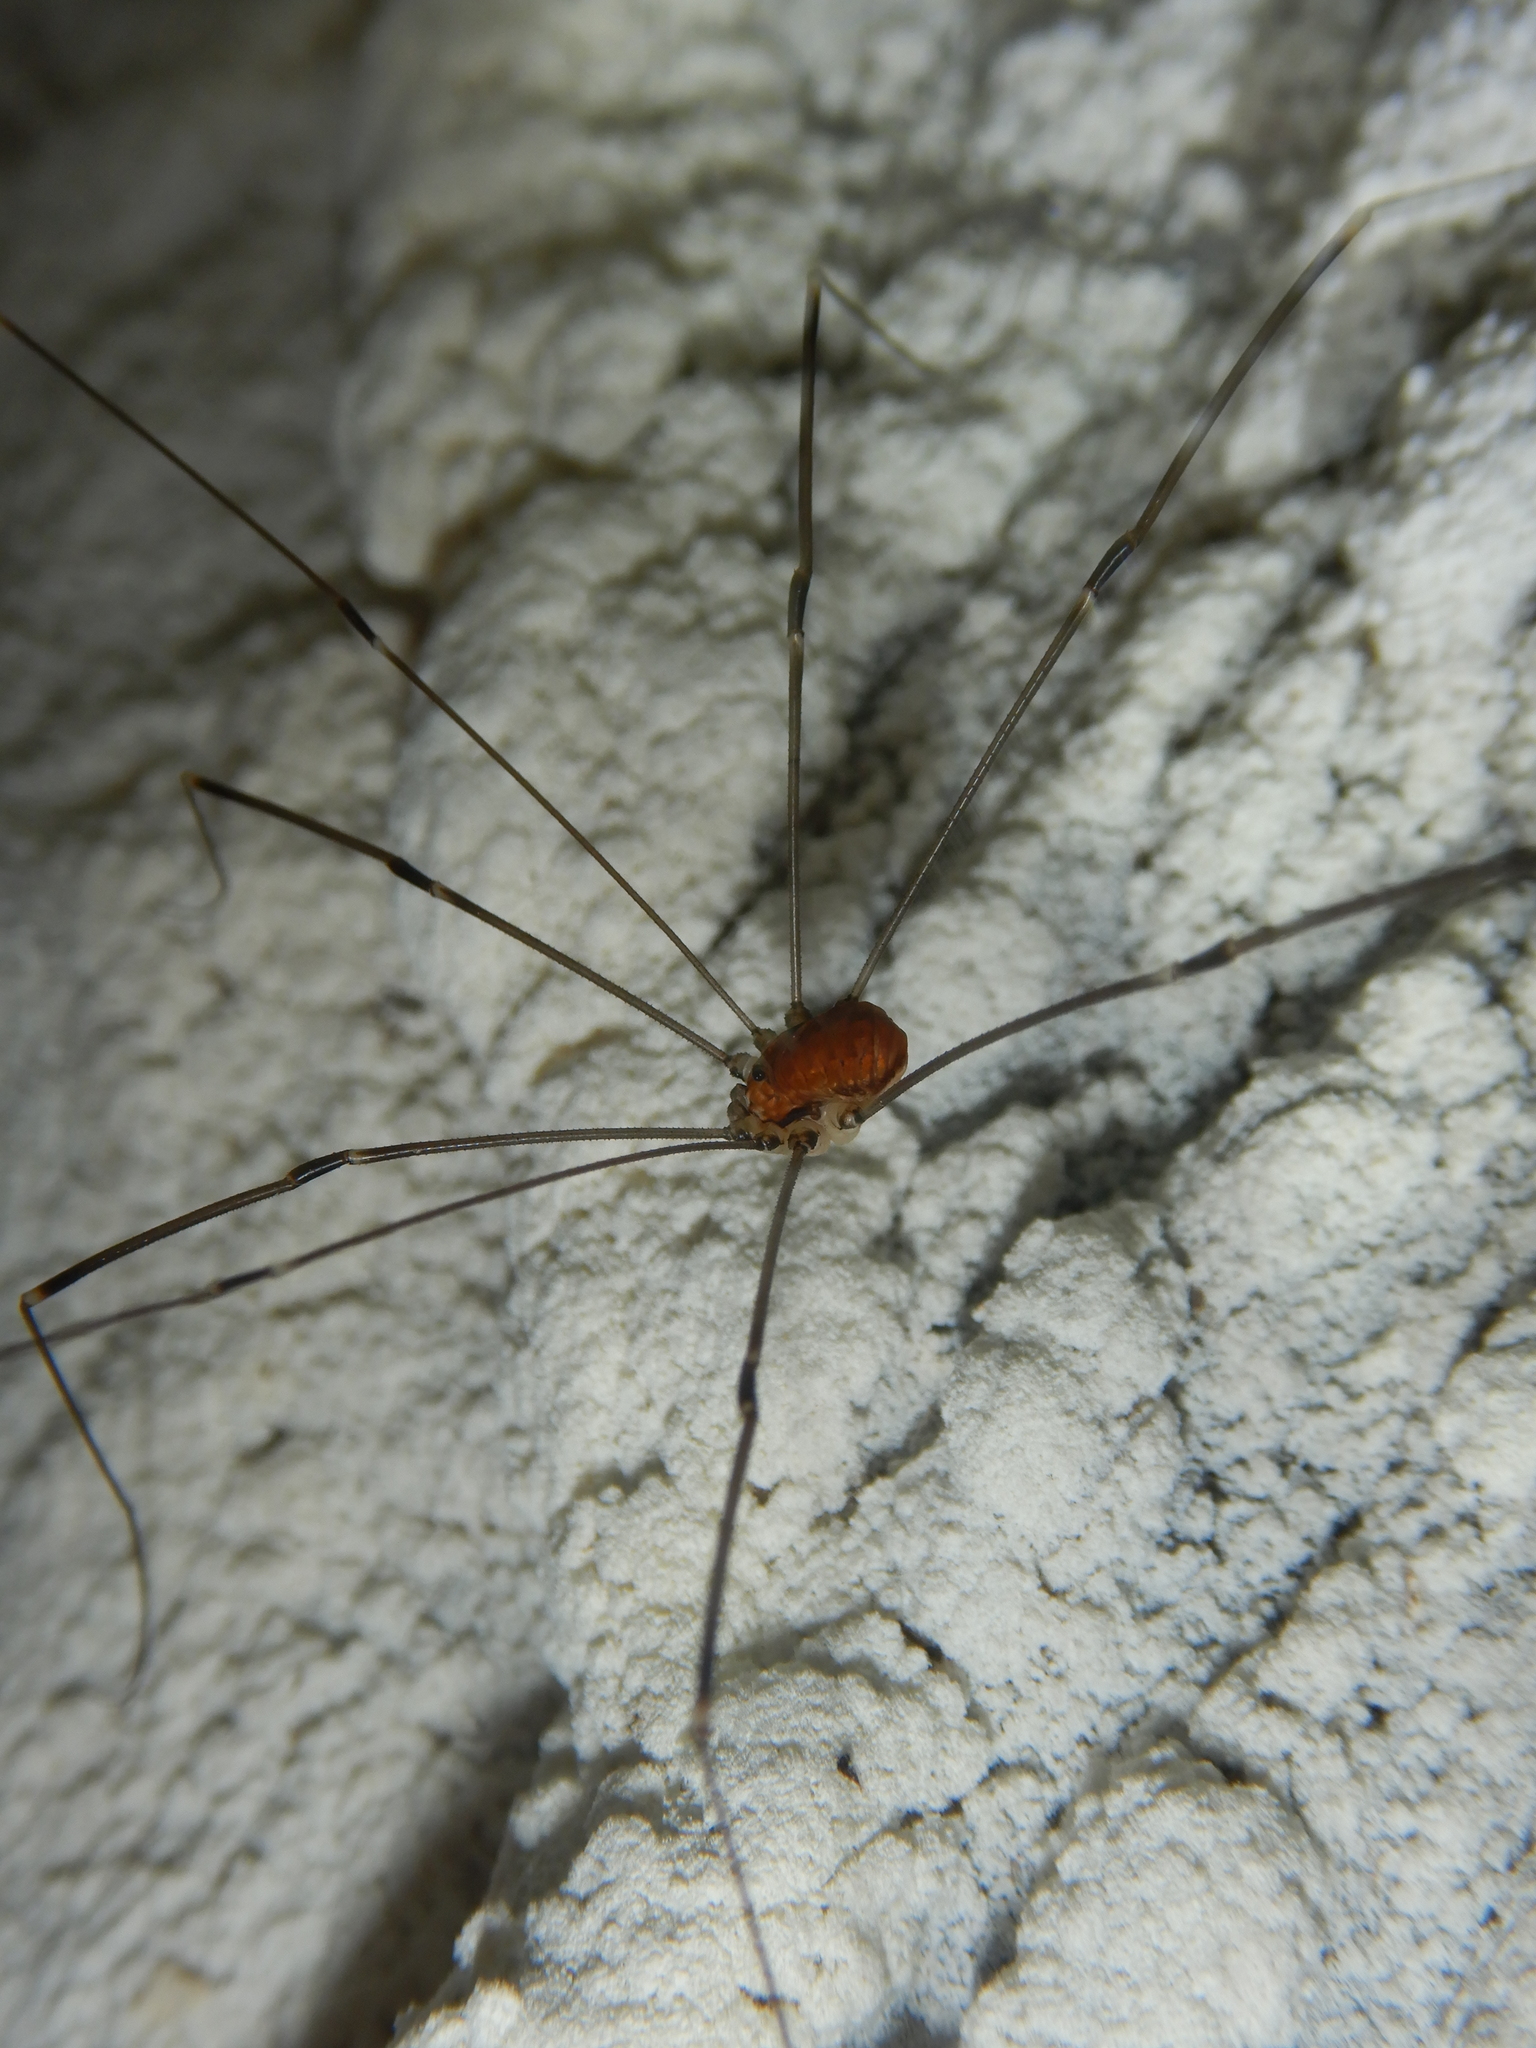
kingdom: Animalia
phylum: Arthropoda
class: Arachnida
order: Opiliones
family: Sclerosomatidae
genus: Leiobunum
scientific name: Leiobunum limbatum
